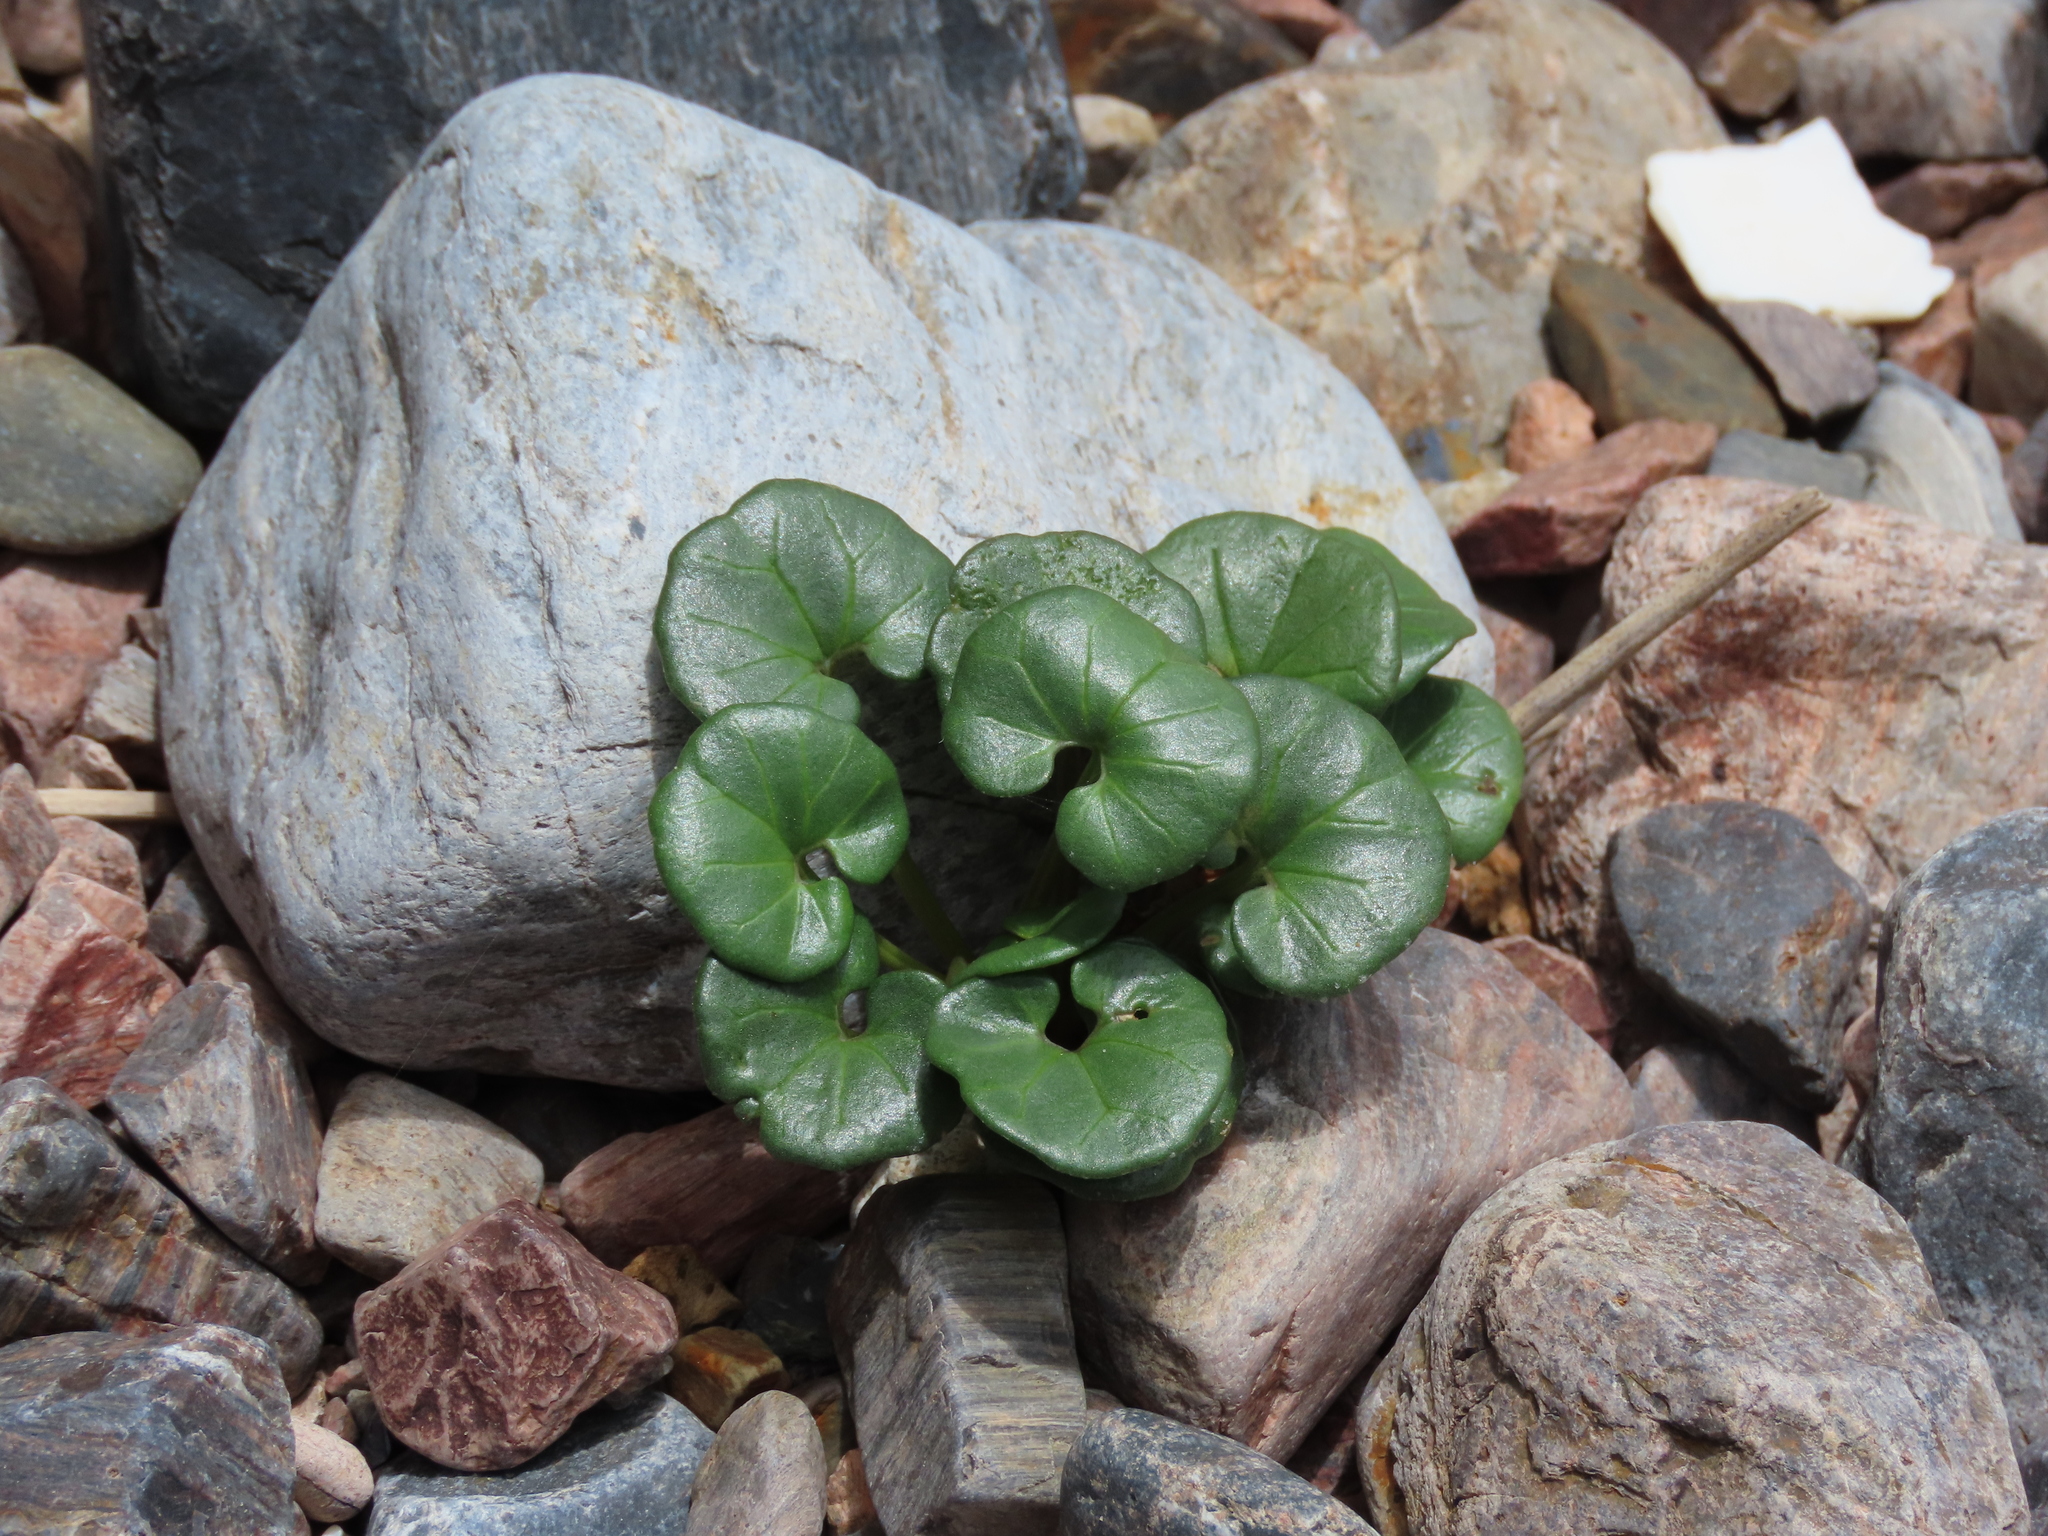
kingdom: Plantae
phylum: Tracheophyta
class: Magnoliopsida
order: Solanales
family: Convolvulaceae
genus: Calystegia
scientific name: Calystegia soldanella
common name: Sea bindweed
